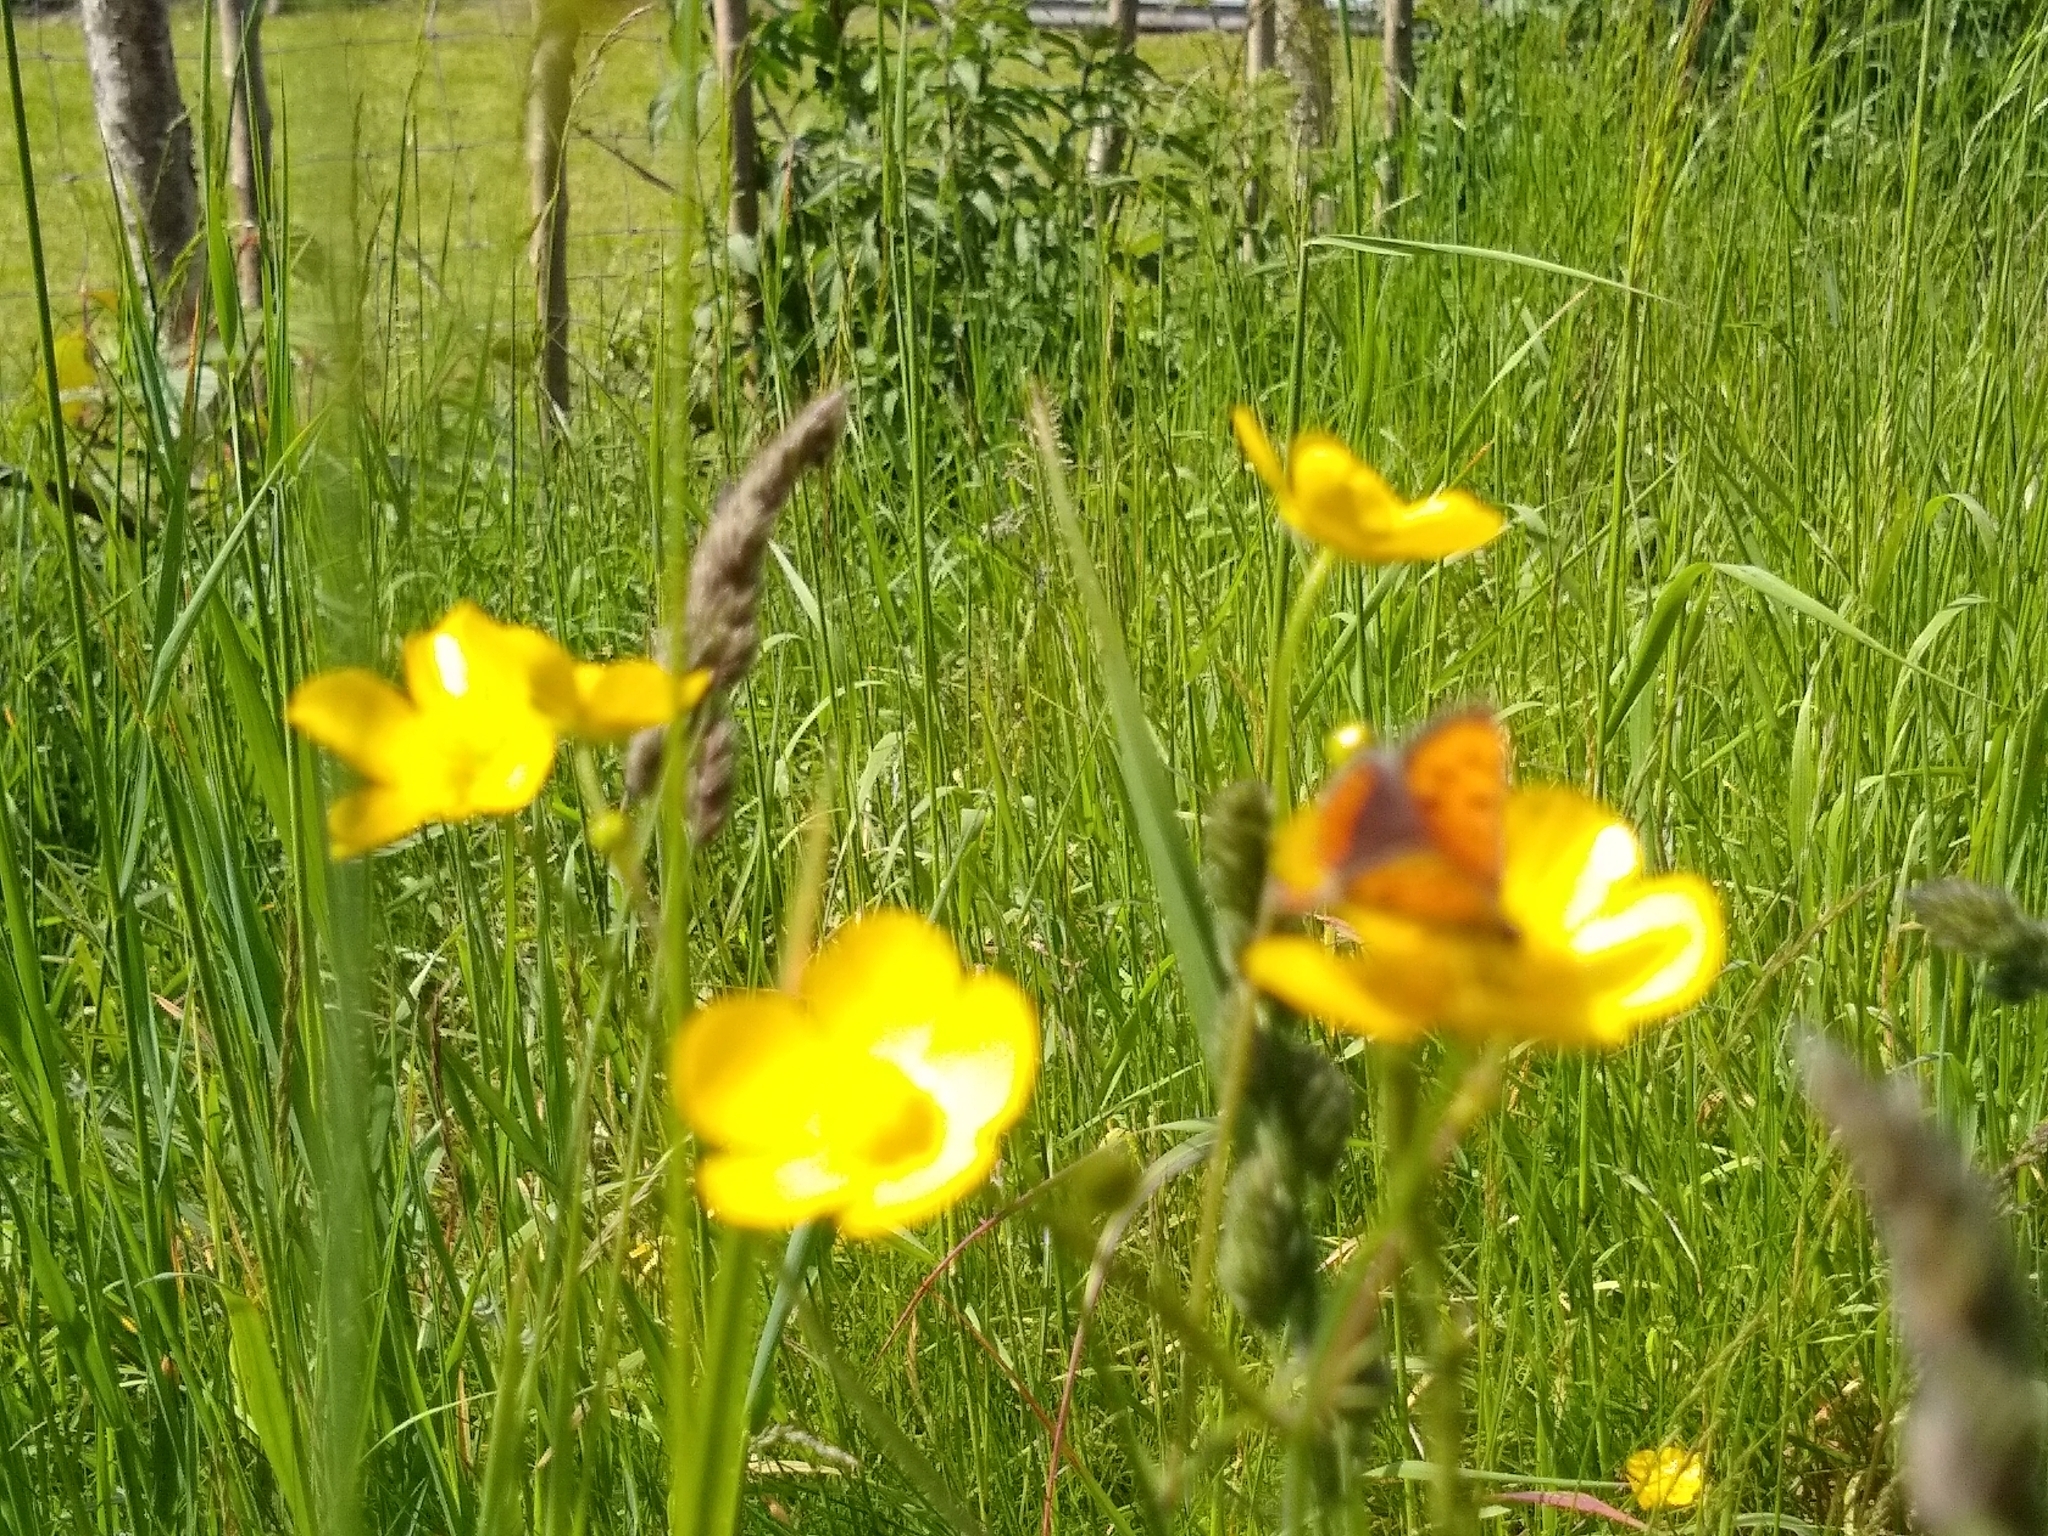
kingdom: Animalia
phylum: Arthropoda
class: Insecta
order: Lepidoptera
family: Lycaenidae
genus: Lycaena
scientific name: Lycaena phlaeas
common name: Small copper
